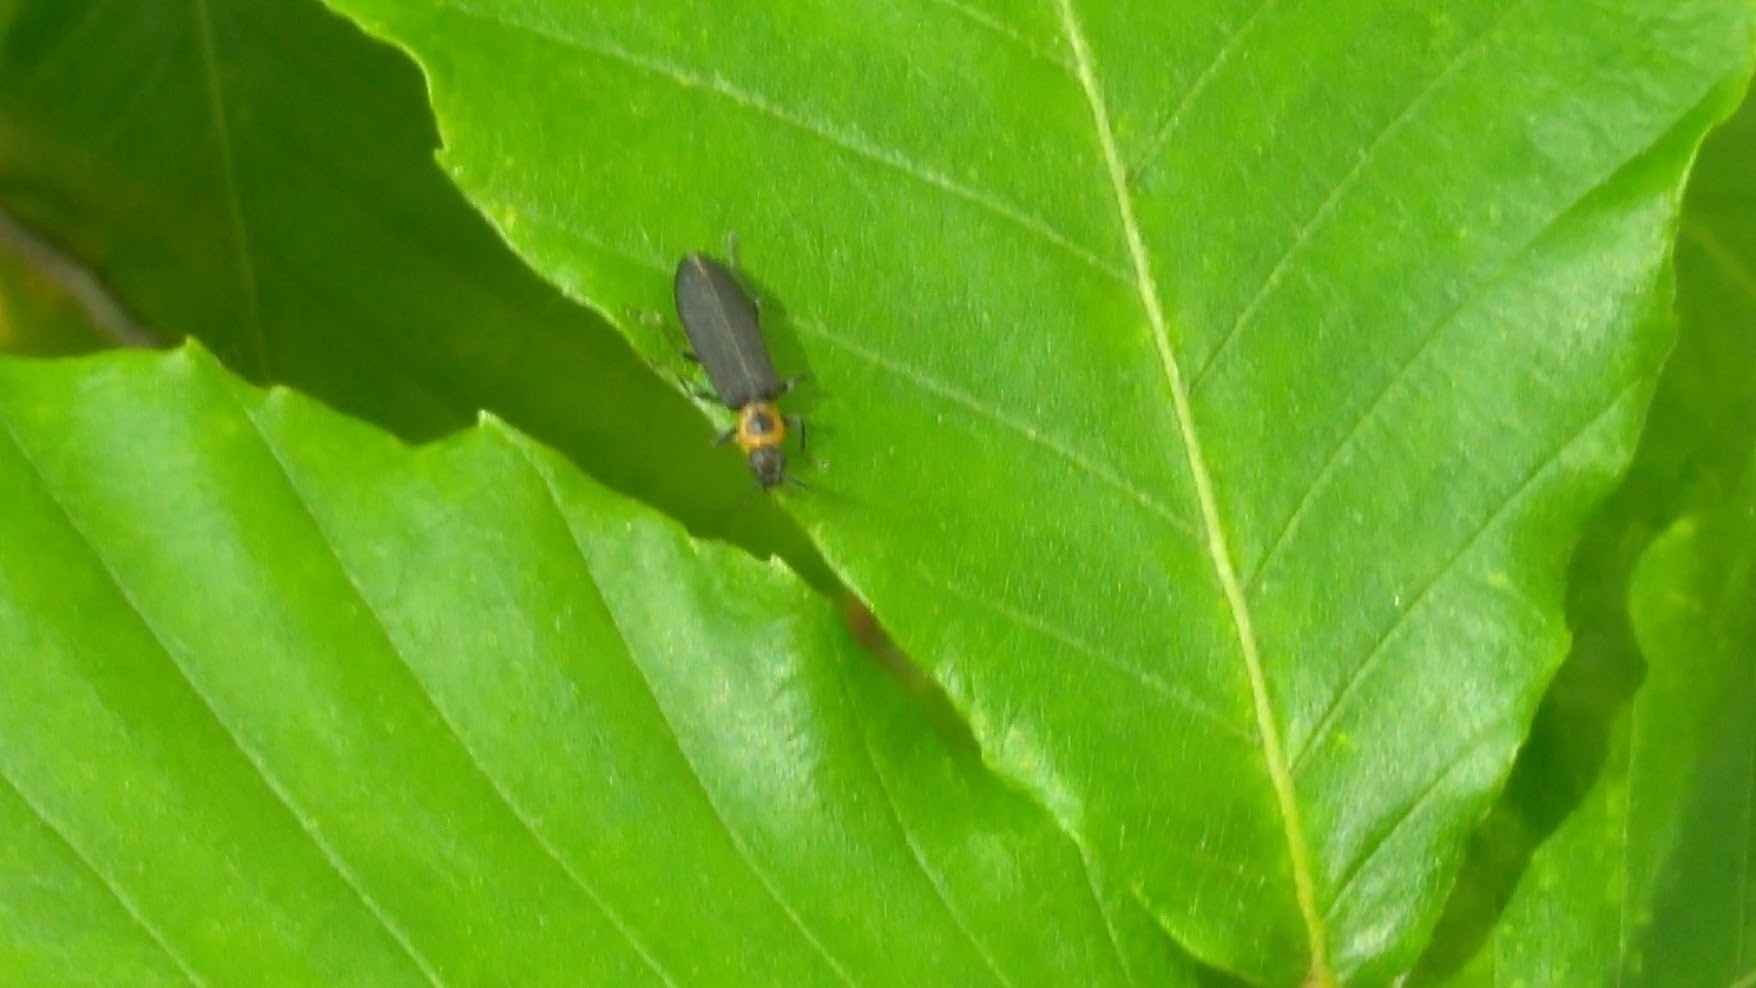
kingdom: Animalia
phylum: Arthropoda
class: Insecta
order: Coleoptera
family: Oedemeridae
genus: Ischnomera
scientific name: Ischnomera
